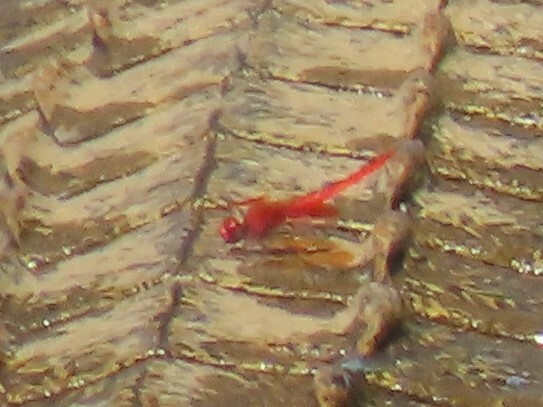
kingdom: Animalia
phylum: Arthropoda
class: Insecta
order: Odonata
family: Libellulidae
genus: Trithemis
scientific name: Trithemis kirbyi
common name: Kirby's dropwing
